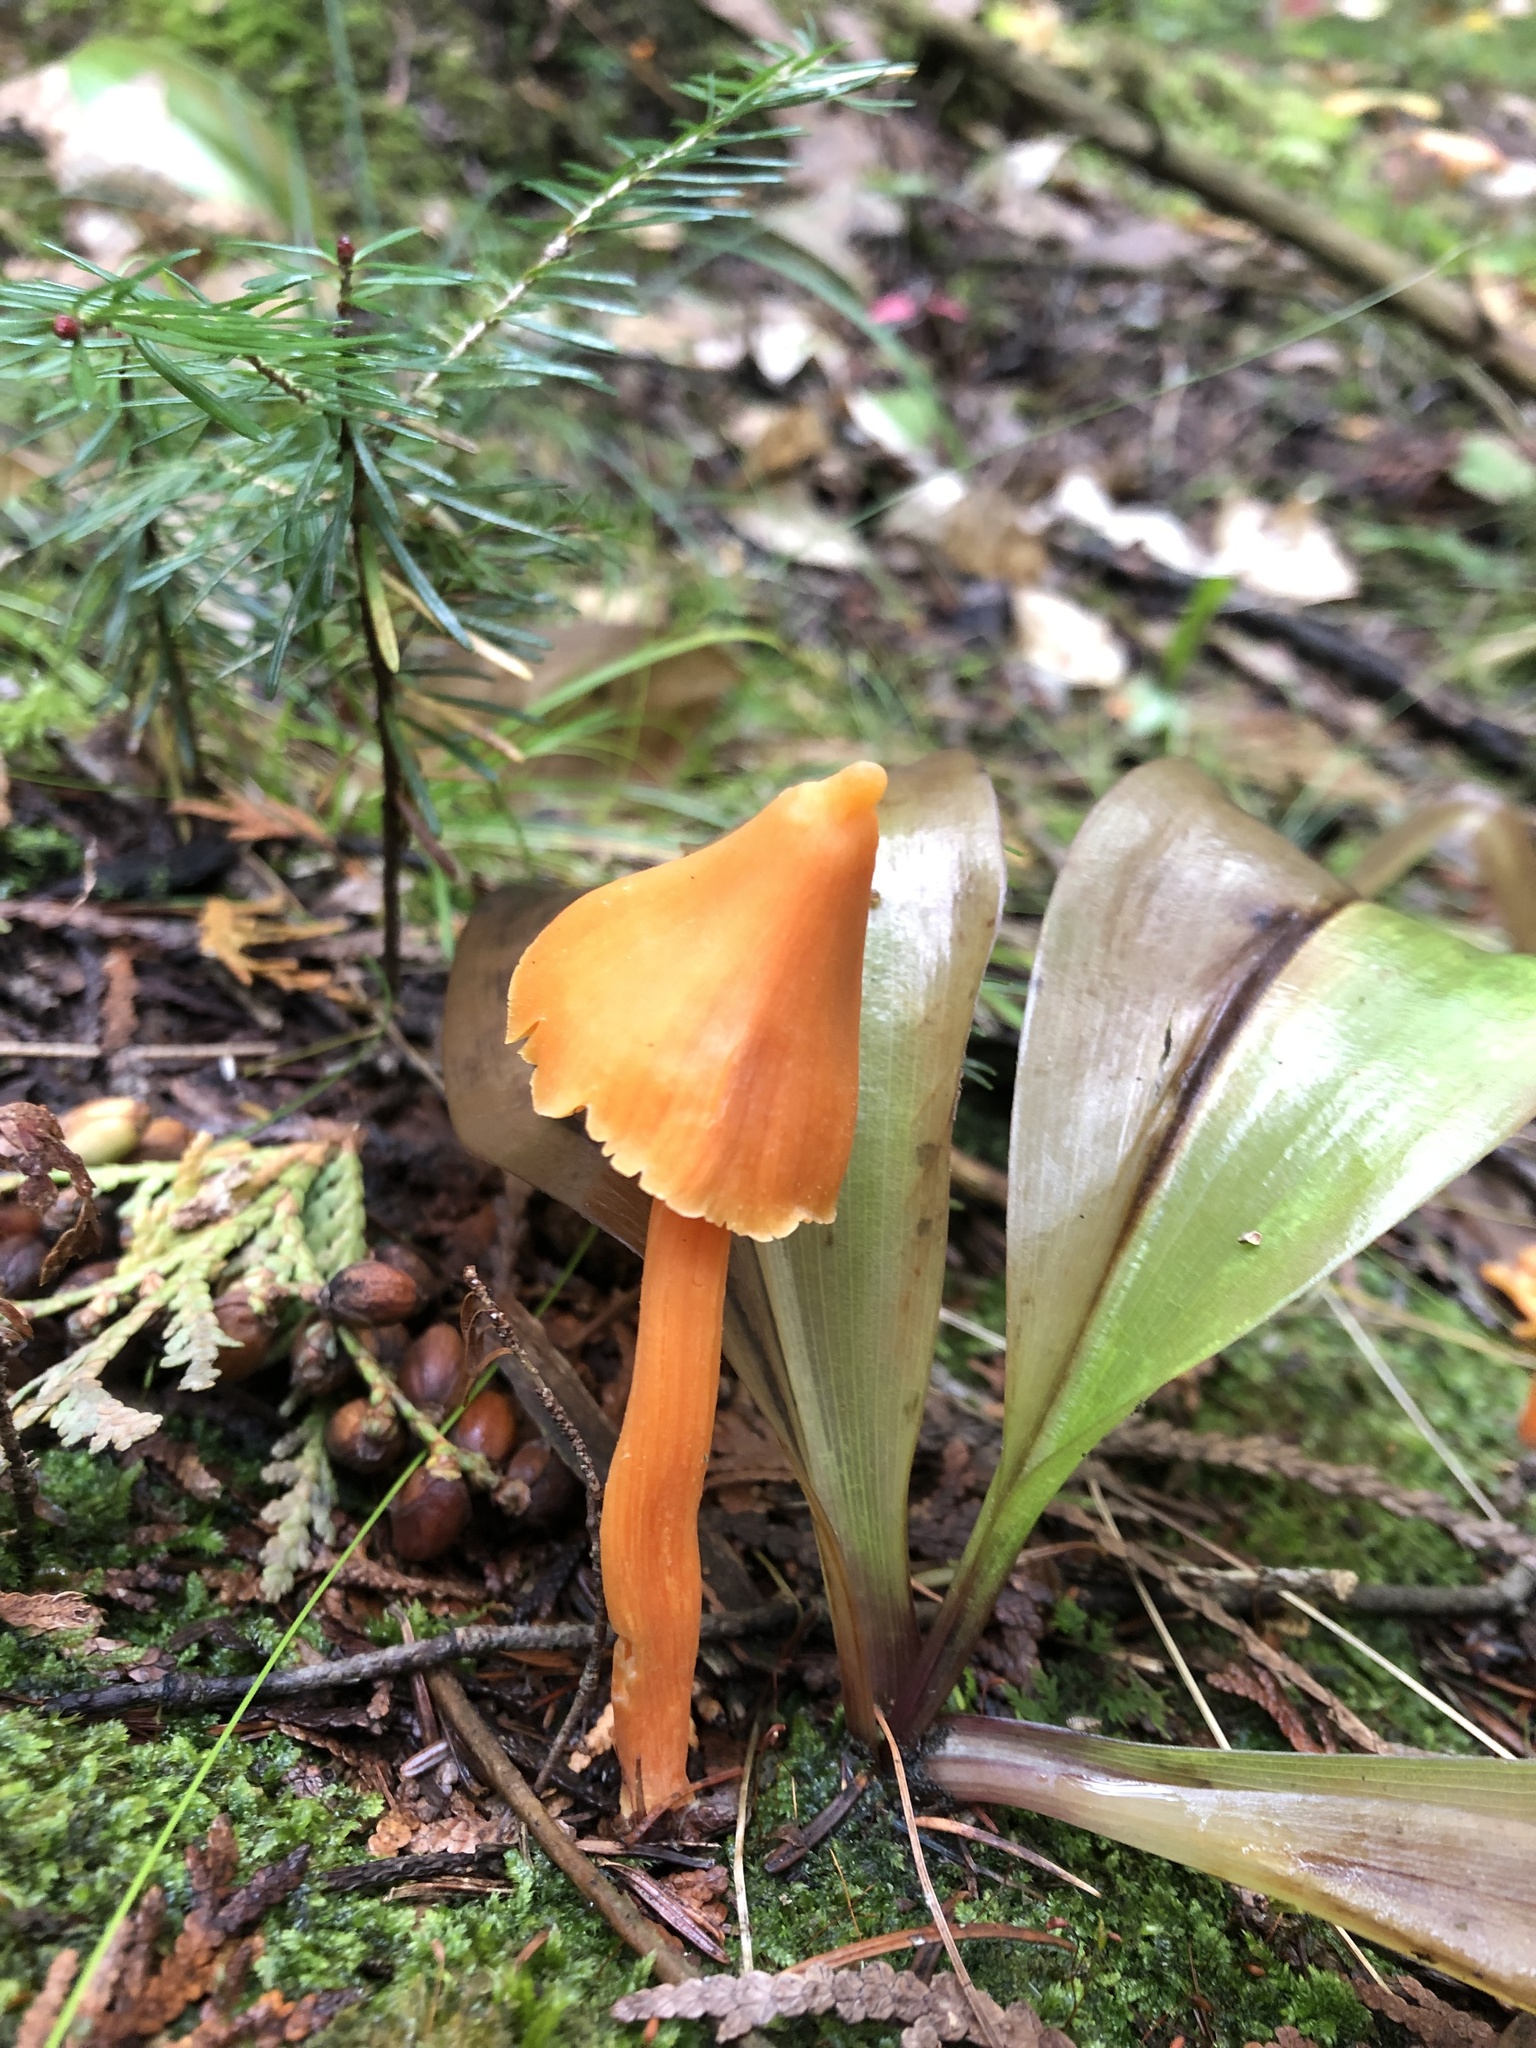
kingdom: Fungi
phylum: Basidiomycota
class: Agaricomycetes
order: Agaricales
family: Entolomataceae
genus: Entoloma
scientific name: Entoloma quadratum
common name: Salmon pinkgill
